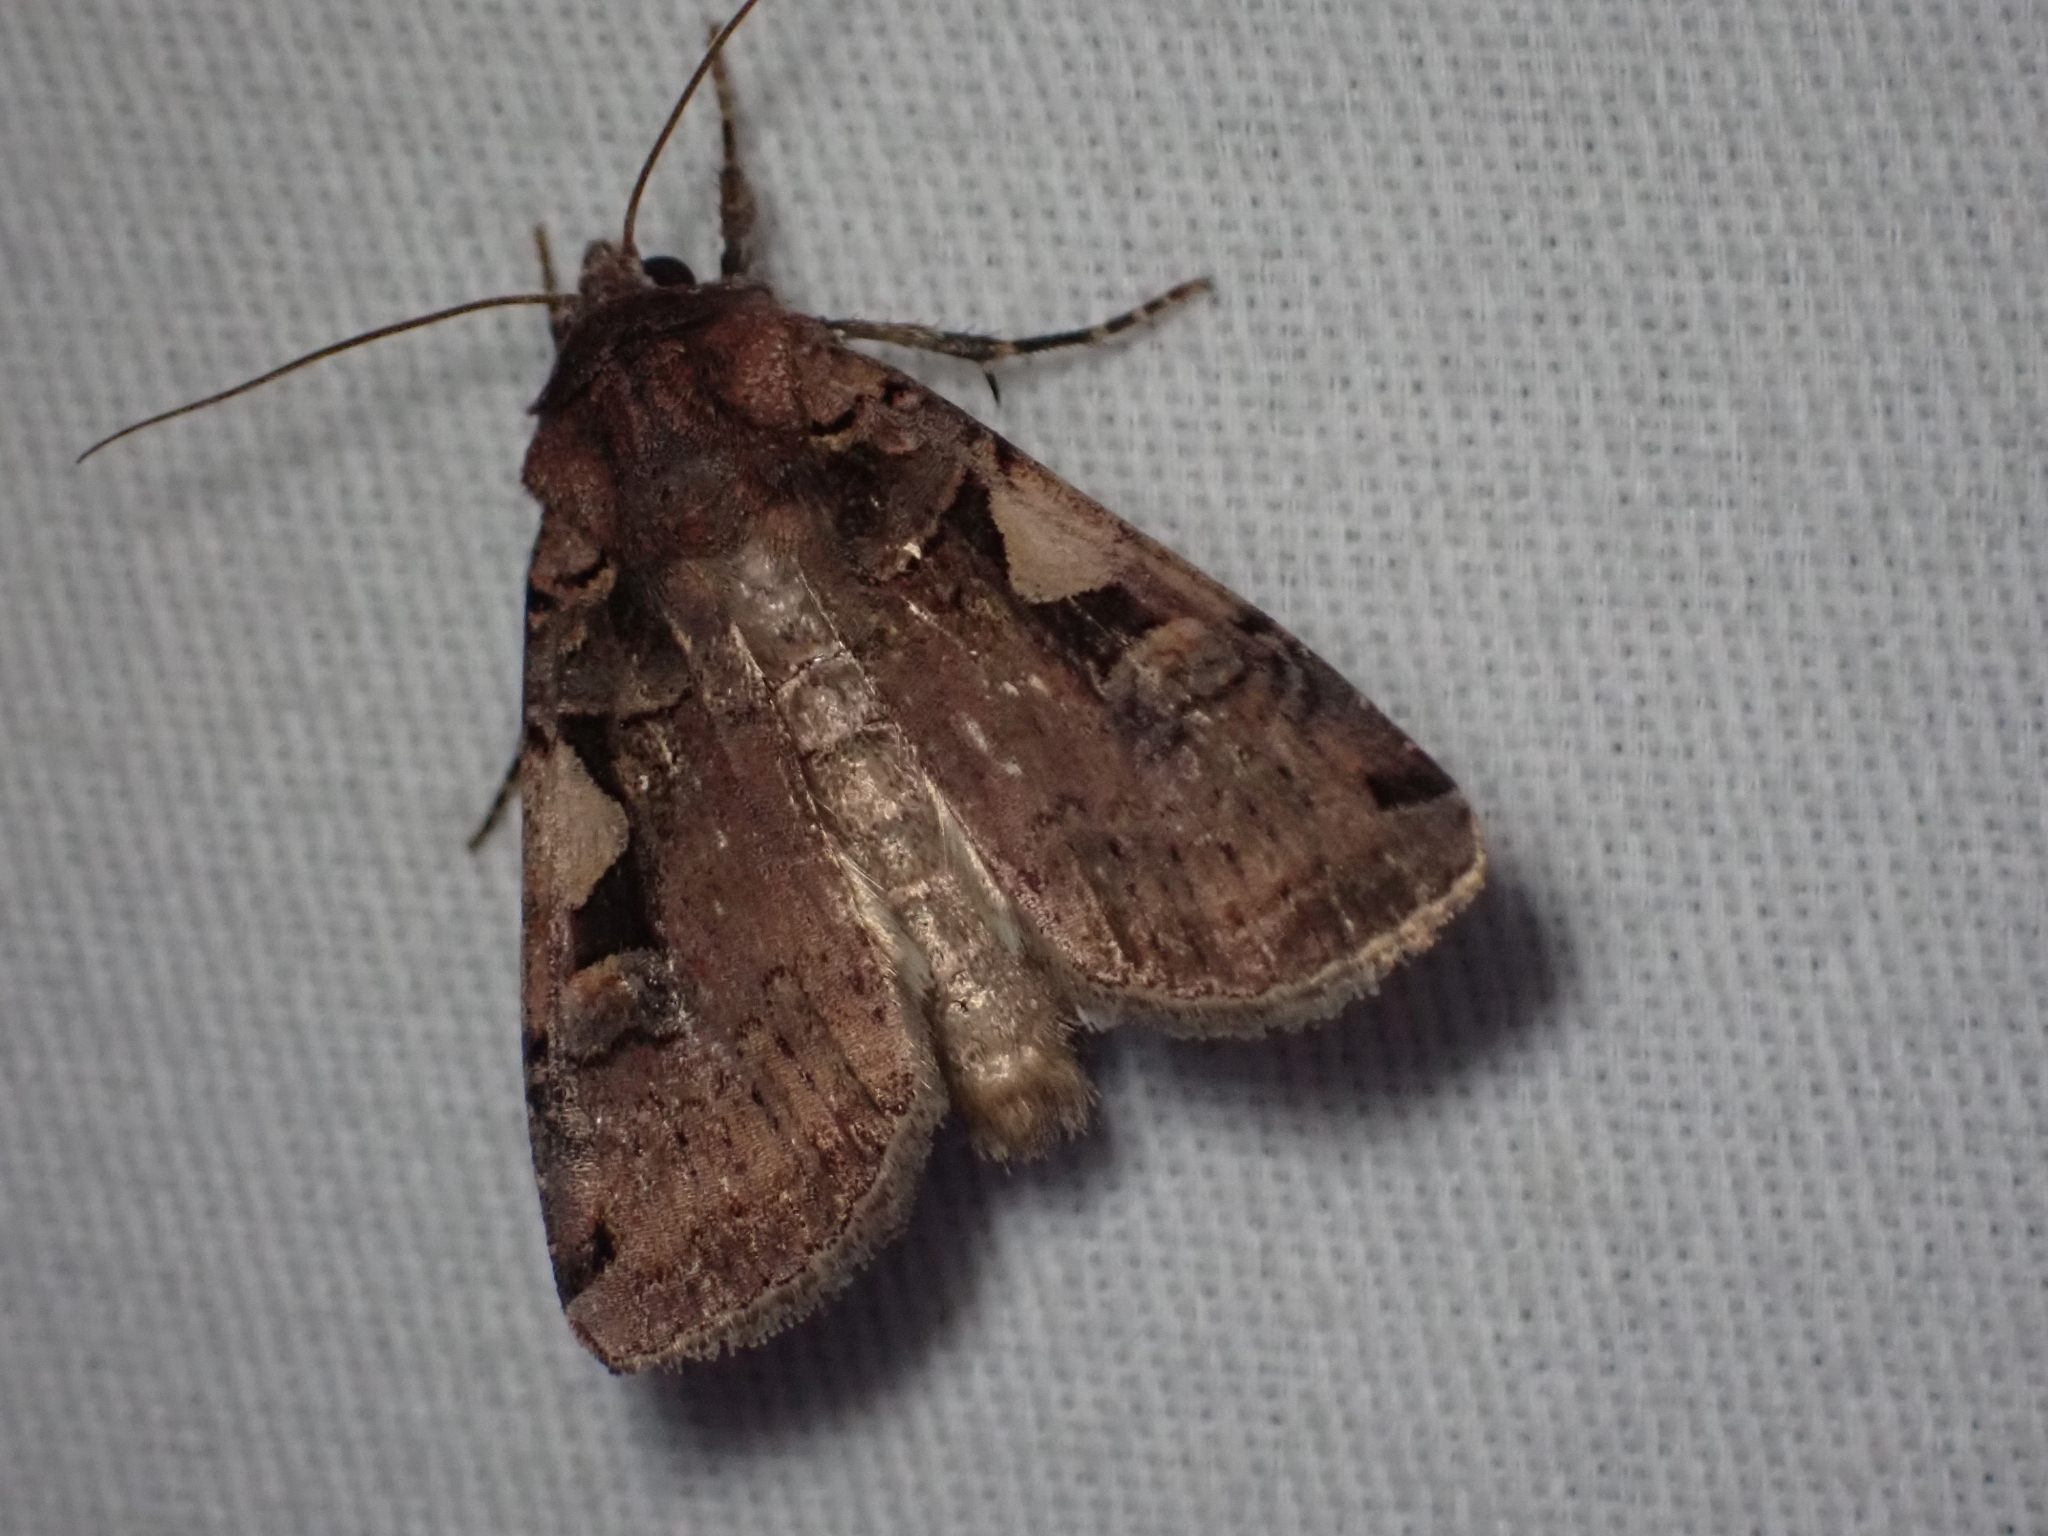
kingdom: Animalia
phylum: Arthropoda
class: Insecta
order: Lepidoptera
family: Noctuidae
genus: Xestia
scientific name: Xestia c-nigrum
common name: Setaceous hebrew character
